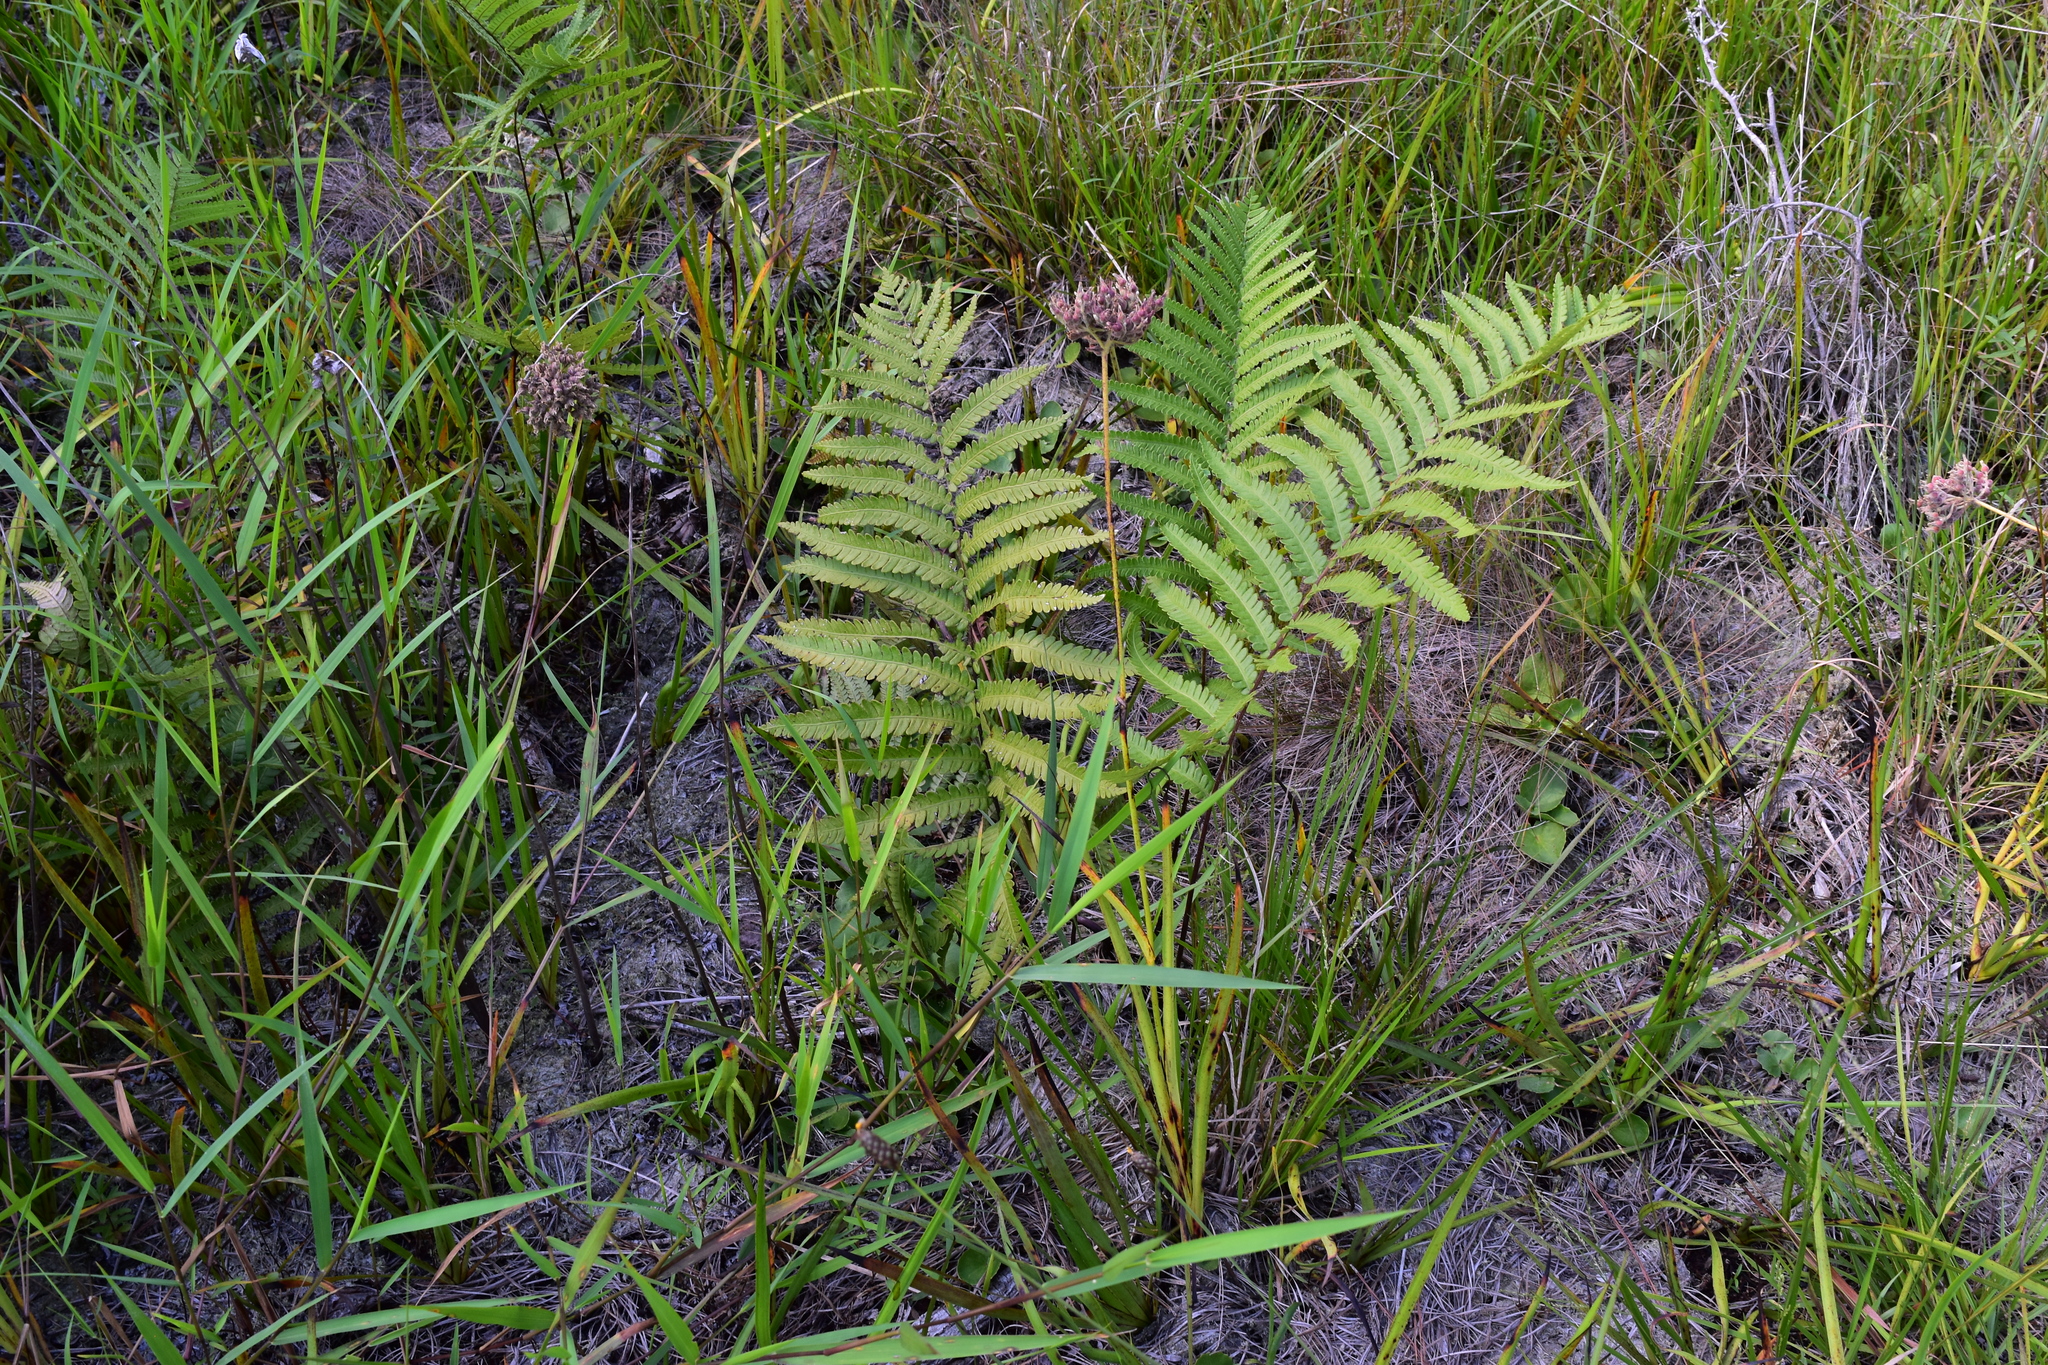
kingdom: Plantae
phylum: Tracheophyta
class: Polypodiopsida
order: Polypodiales
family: Blechnaceae
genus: Anchistea
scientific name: Anchistea virginica
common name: Virginia chain fern
